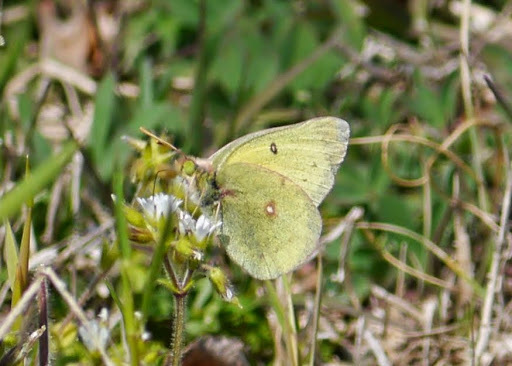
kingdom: Animalia
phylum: Arthropoda
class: Insecta
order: Lepidoptera
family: Pieridae
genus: Colias
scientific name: Colias philodice
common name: Clouded sulphur
